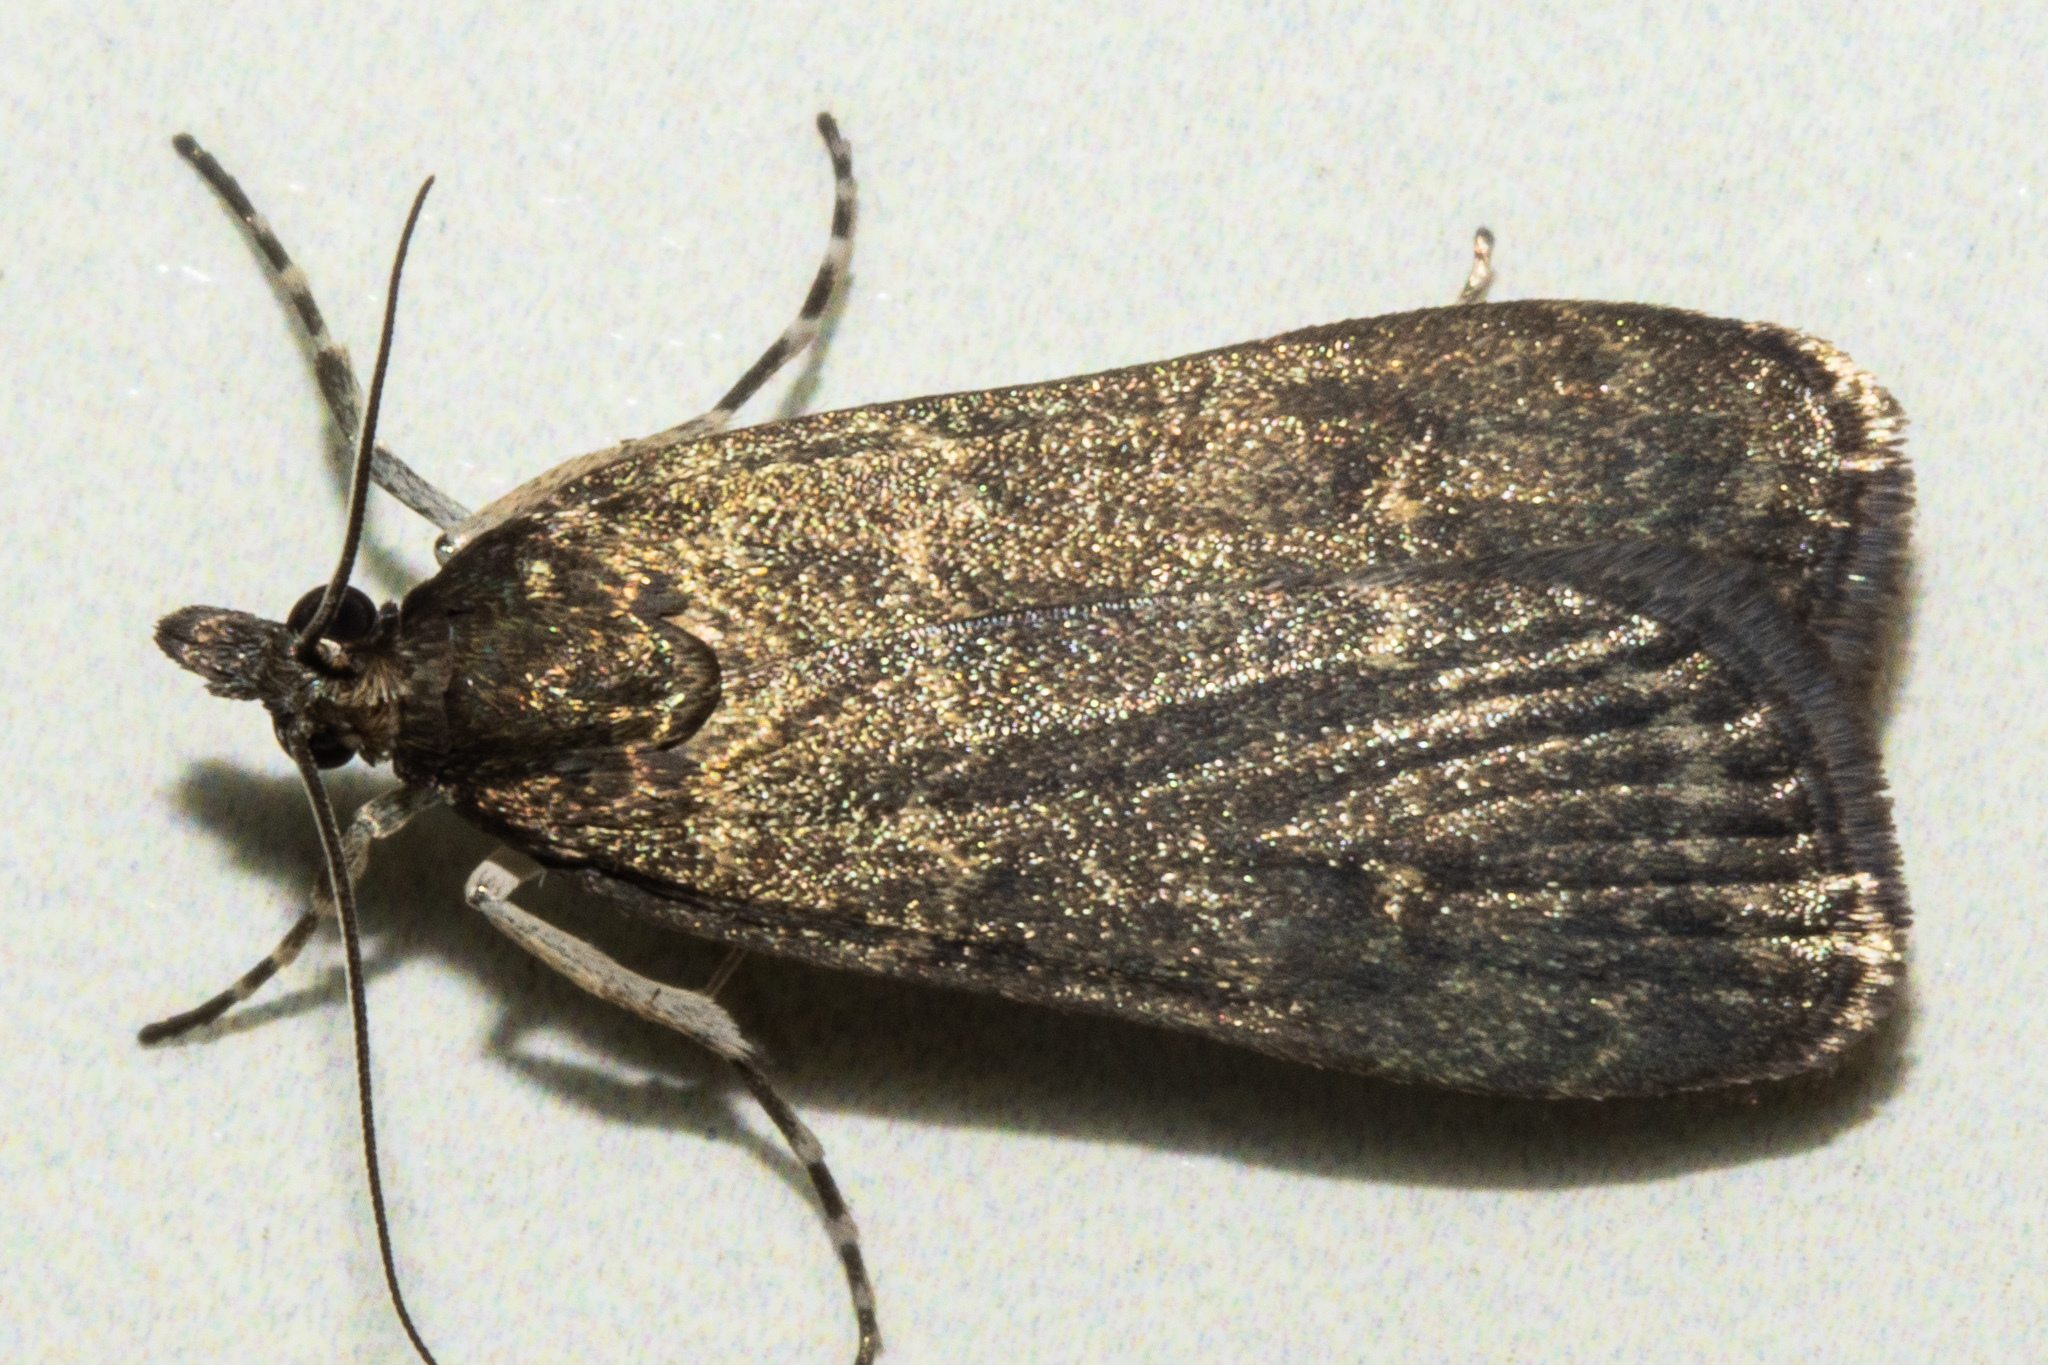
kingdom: Animalia
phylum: Arthropoda
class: Insecta
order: Lepidoptera
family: Crambidae
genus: Eudonia
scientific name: Eudonia cataxesta
